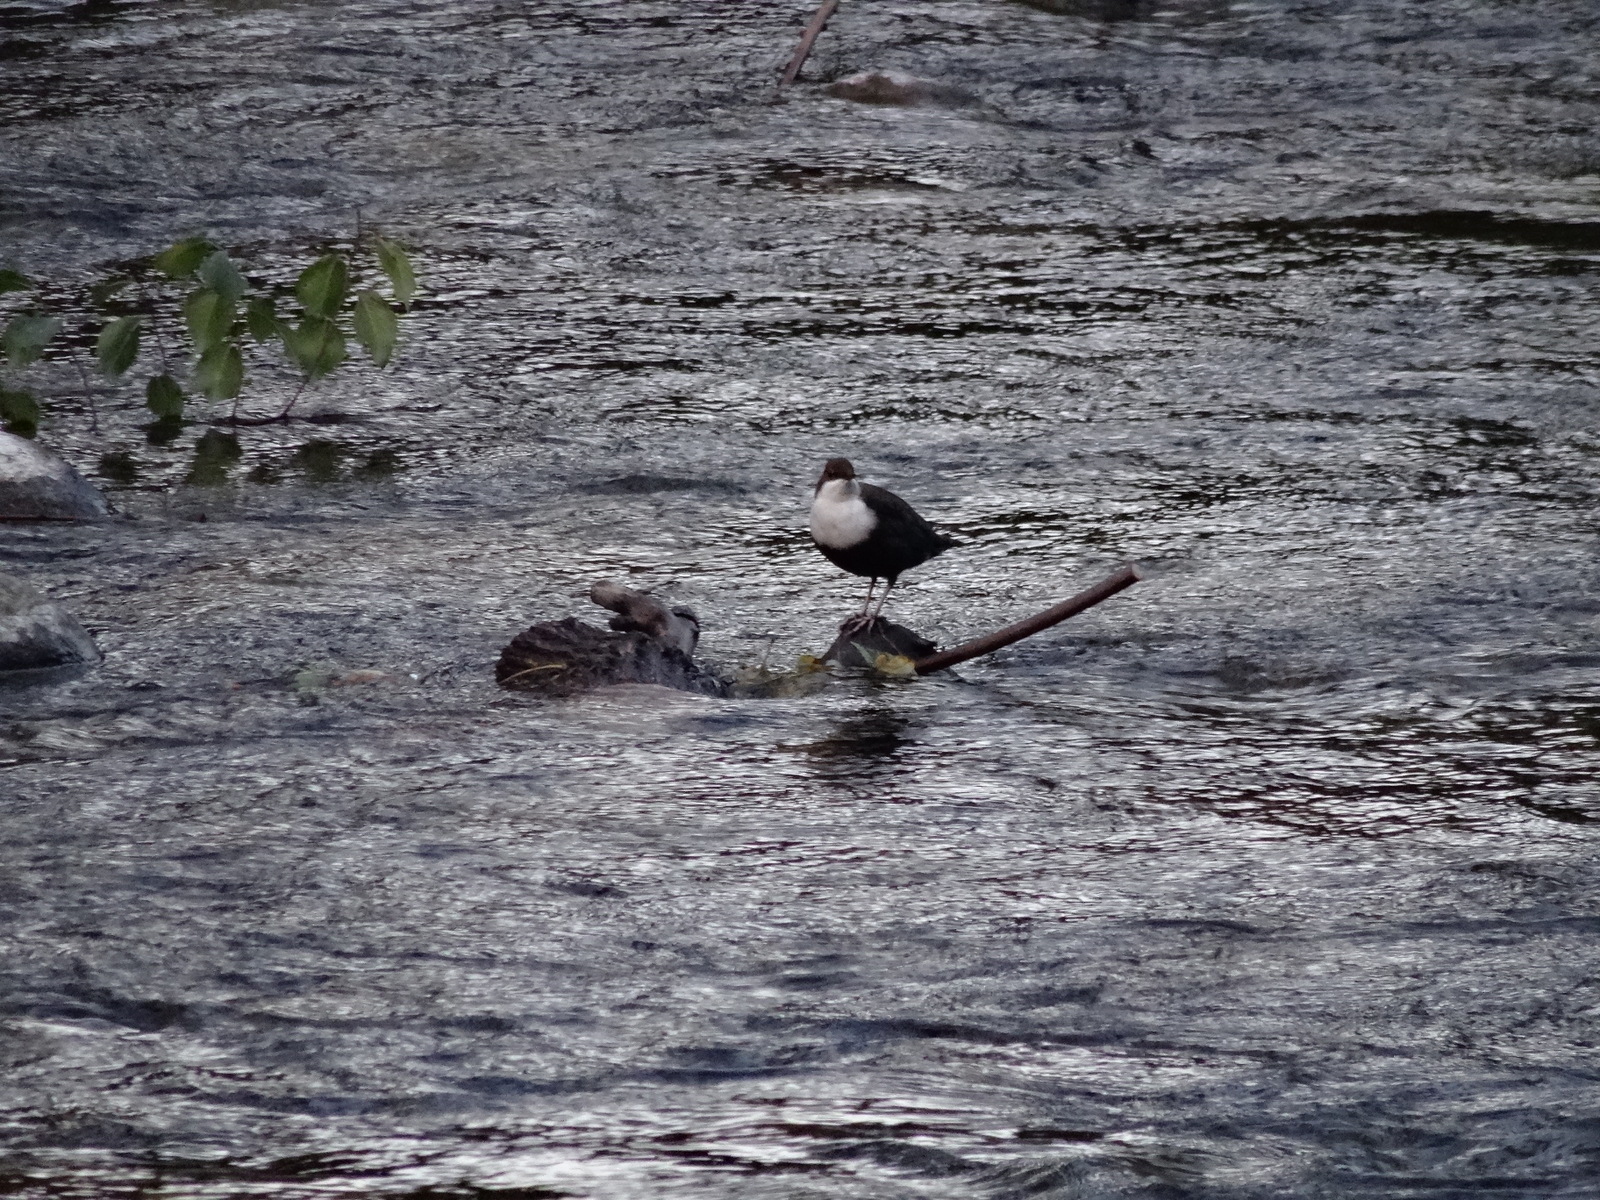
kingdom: Animalia
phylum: Chordata
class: Aves
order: Passeriformes
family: Cinclidae
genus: Cinclus
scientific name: Cinclus cinclus
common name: White-throated dipper
